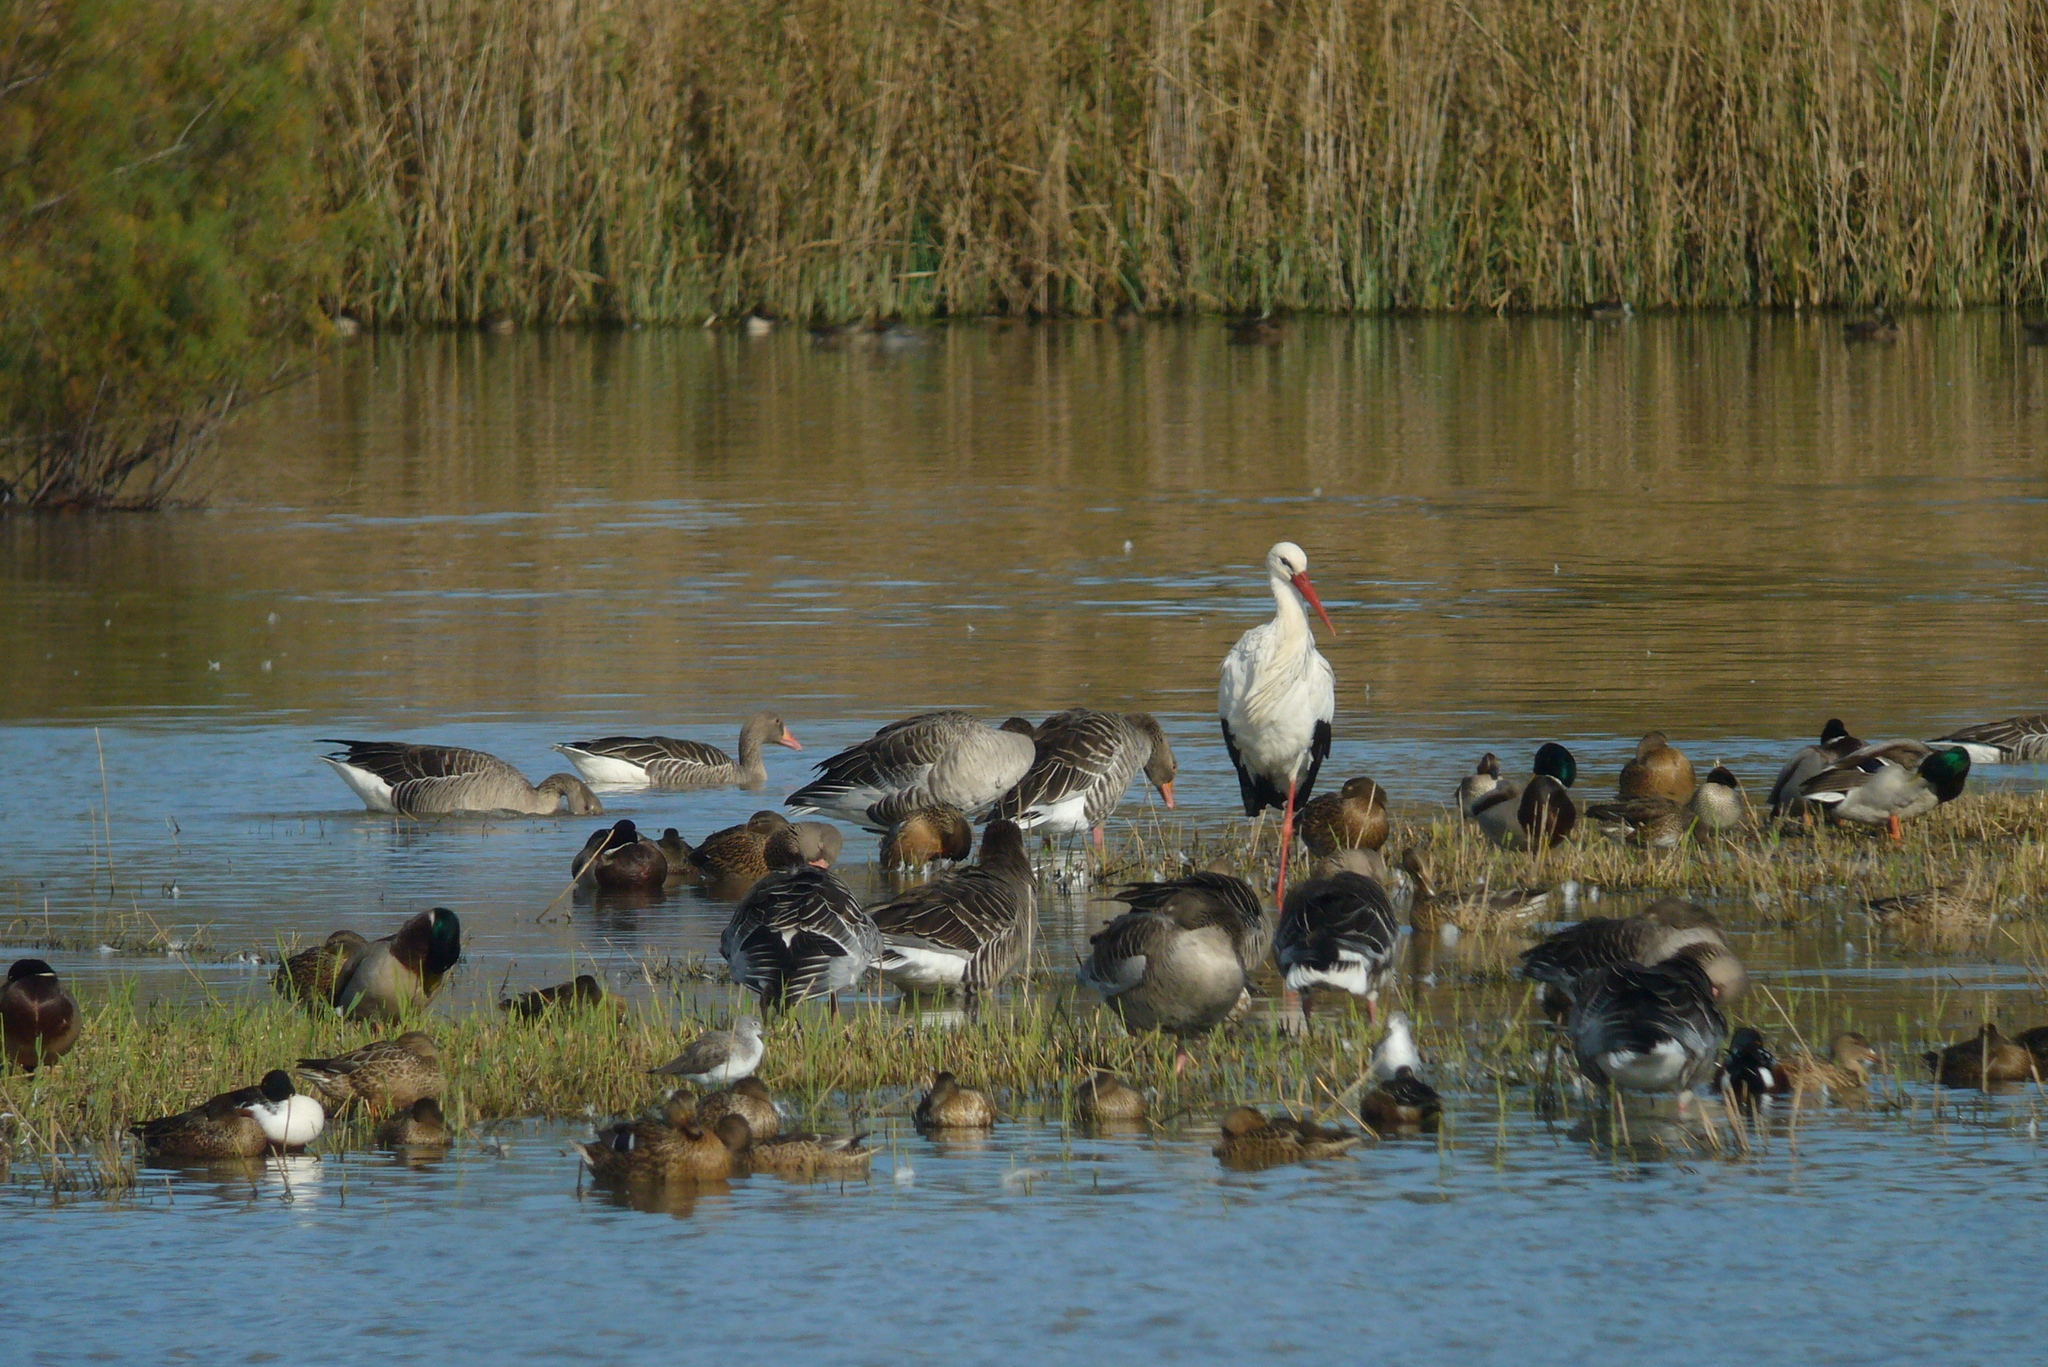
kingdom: Animalia
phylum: Chordata
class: Aves
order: Ciconiiformes
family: Ciconiidae
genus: Ciconia
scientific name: Ciconia ciconia
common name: White stork
